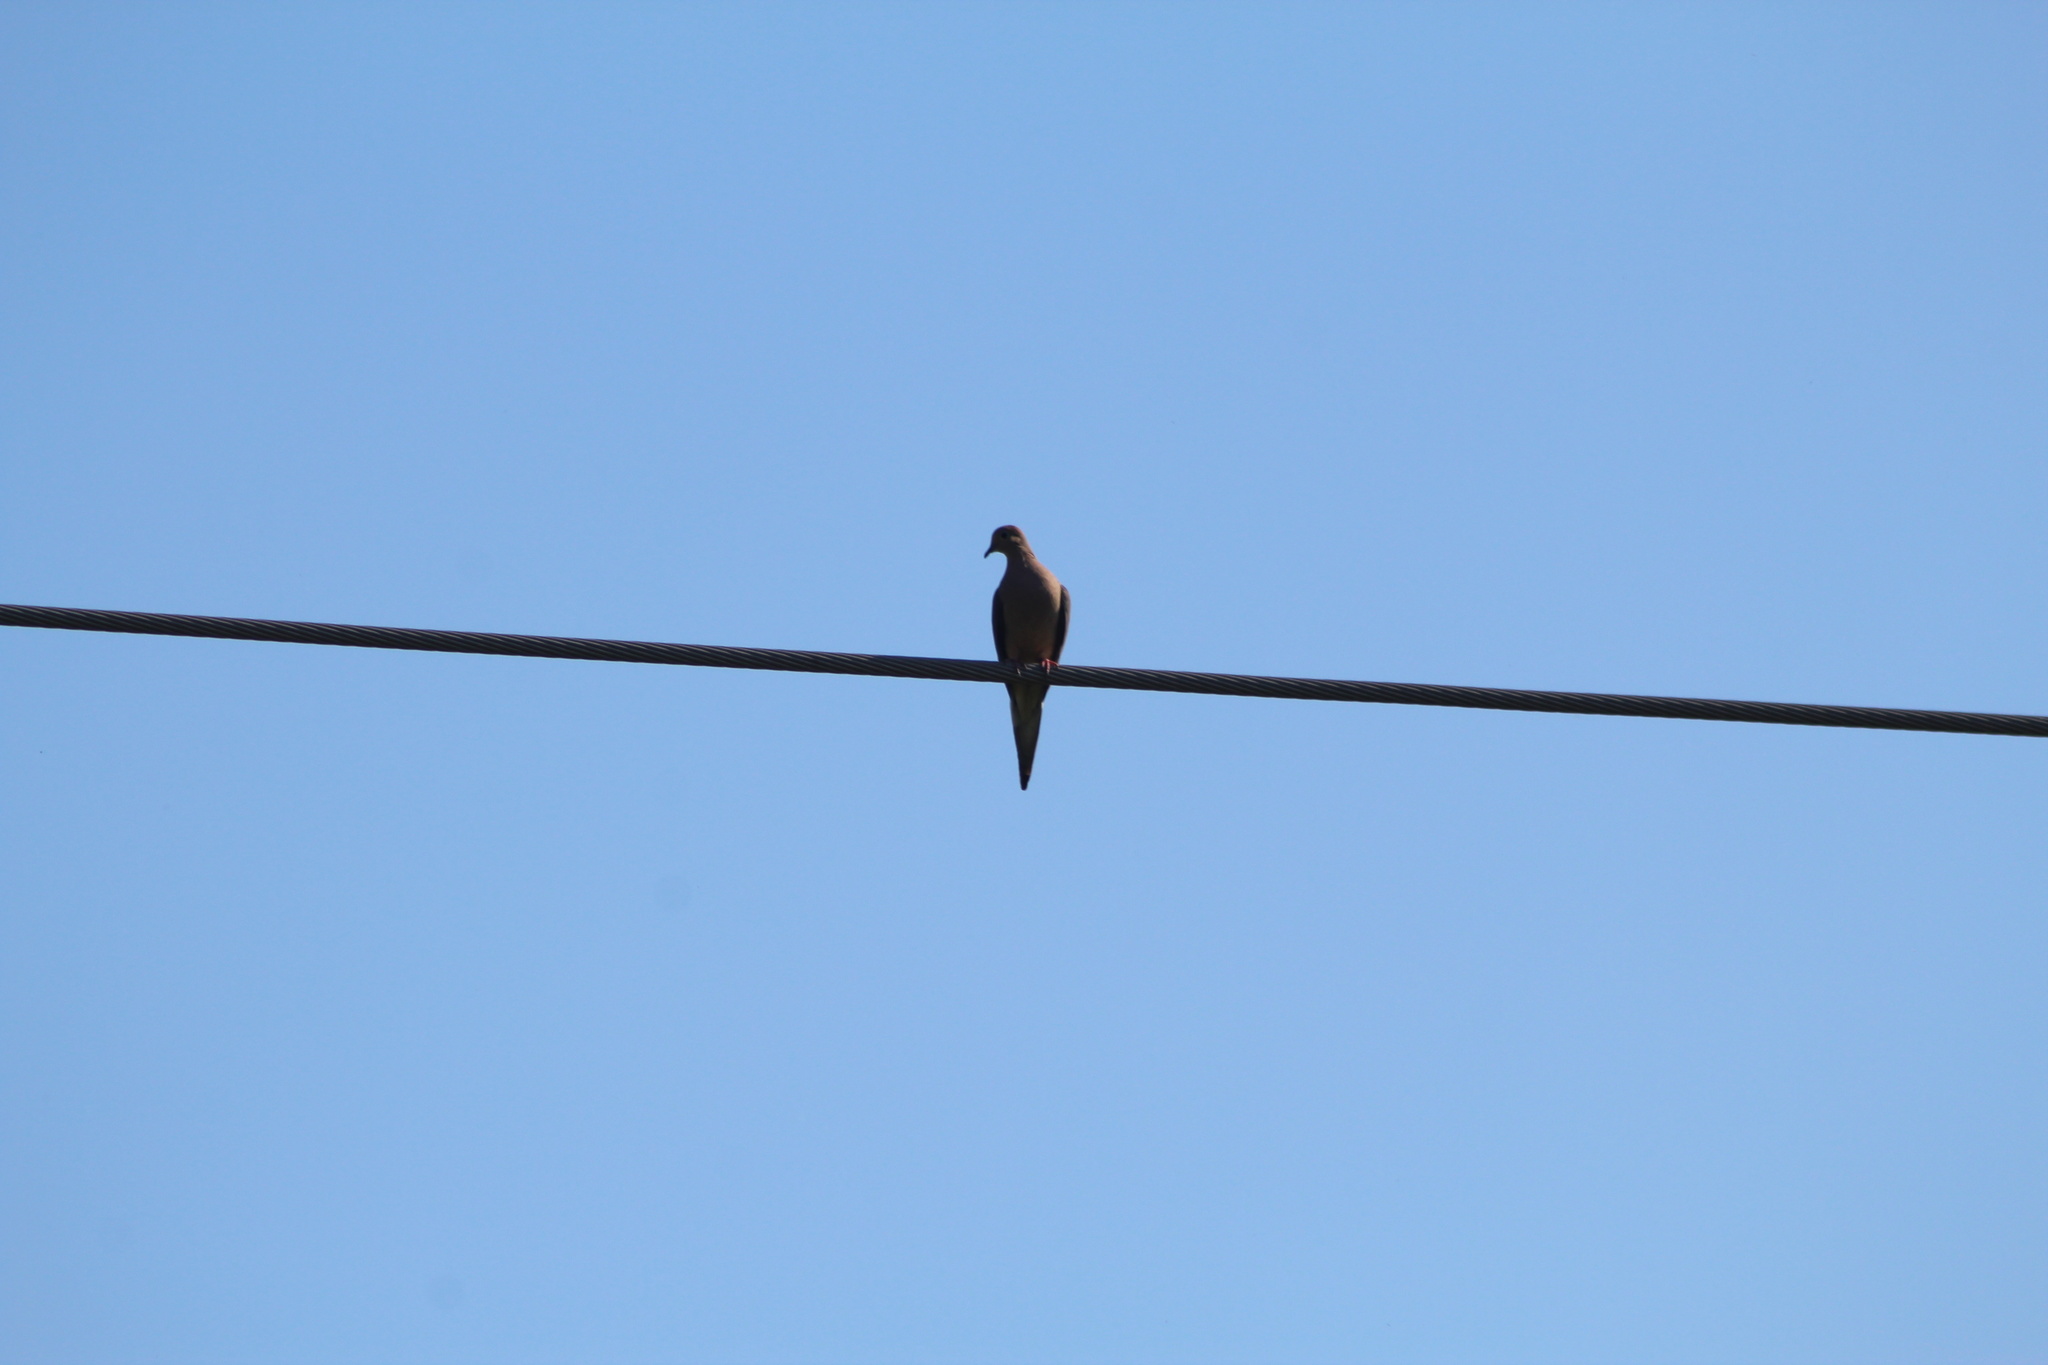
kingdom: Animalia
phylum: Chordata
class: Aves
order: Columbiformes
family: Columbidae
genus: Zenaida
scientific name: Zenaida macroura
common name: Mourning dove
